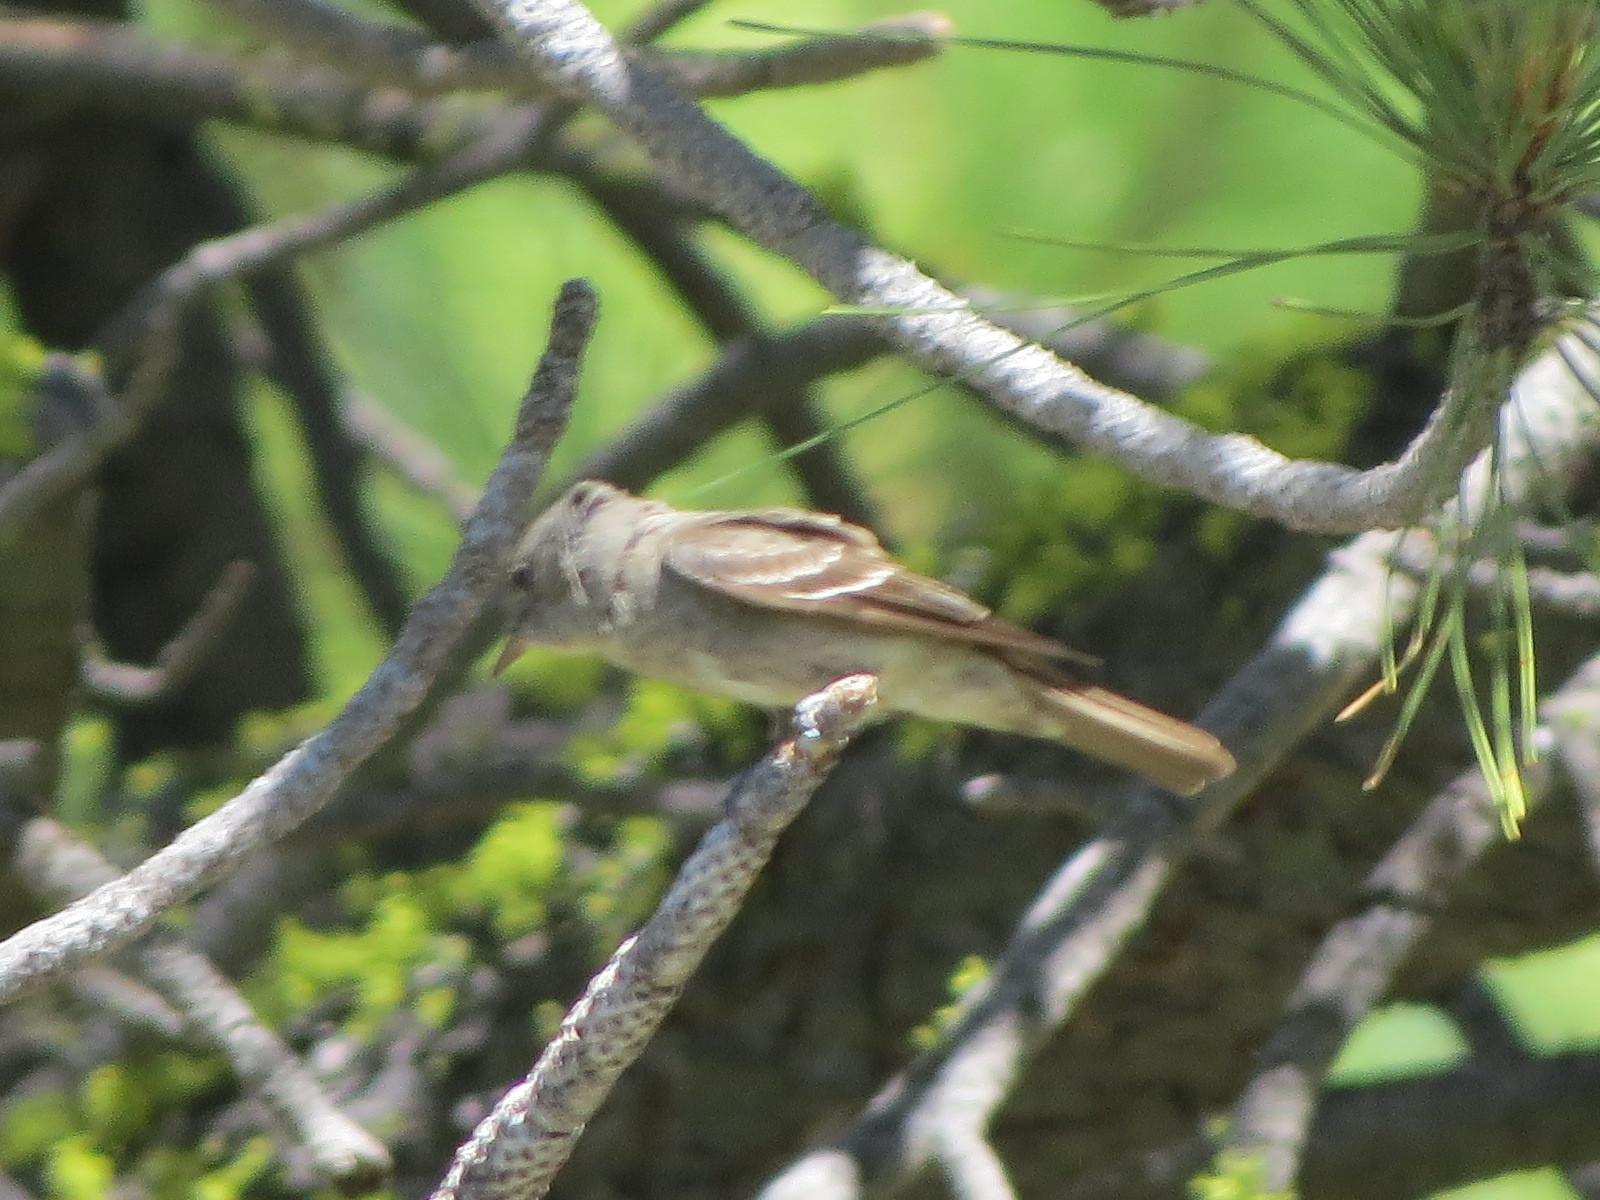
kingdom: Animalia
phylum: Chordata
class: Aves
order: Passeriformes
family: Tyrannidae
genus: Contopus
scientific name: Contopus sordidulus
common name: Western wood-pewee
